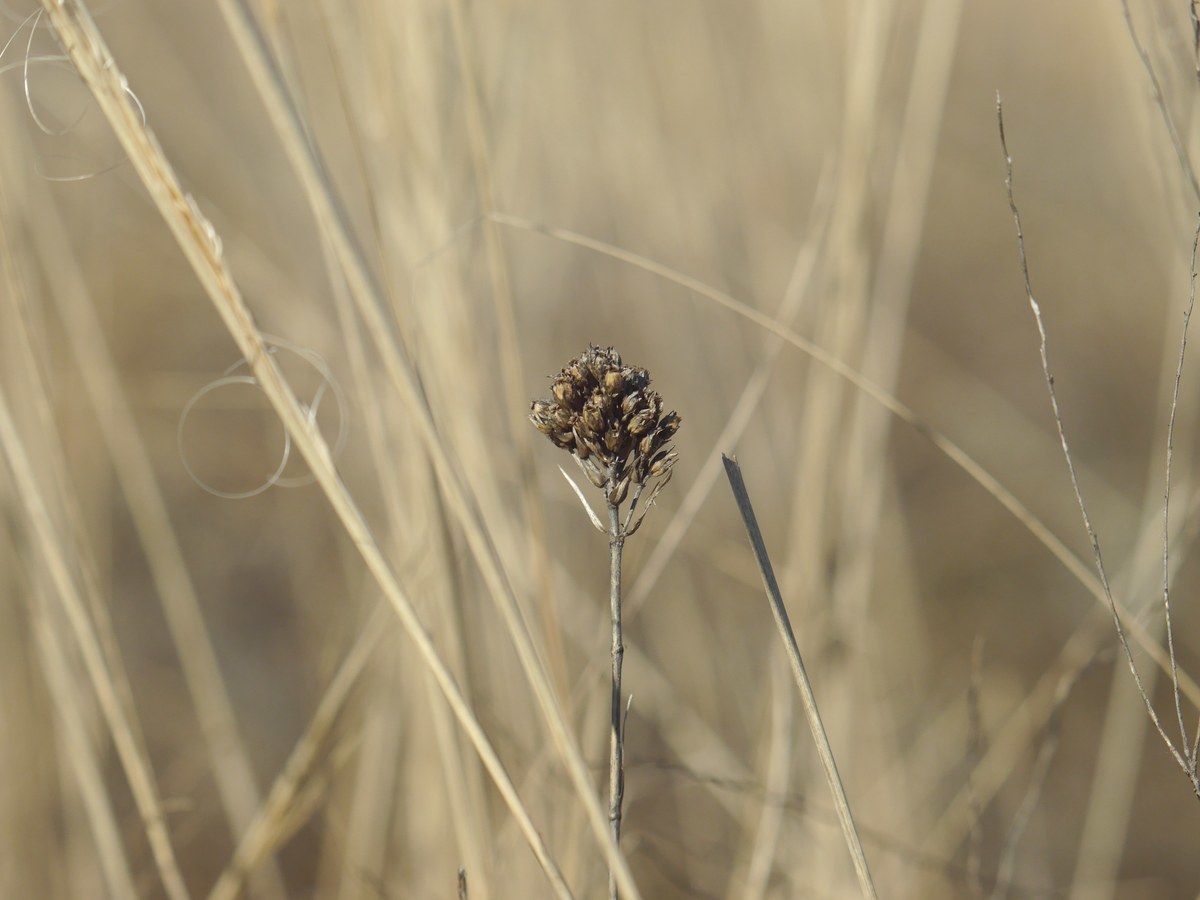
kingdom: Plantae
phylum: Tracheophyta
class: Magnoliopsida
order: Caryophyllales
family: Caryophyllaceae
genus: Eremogone
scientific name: Eremogone cephalotes
